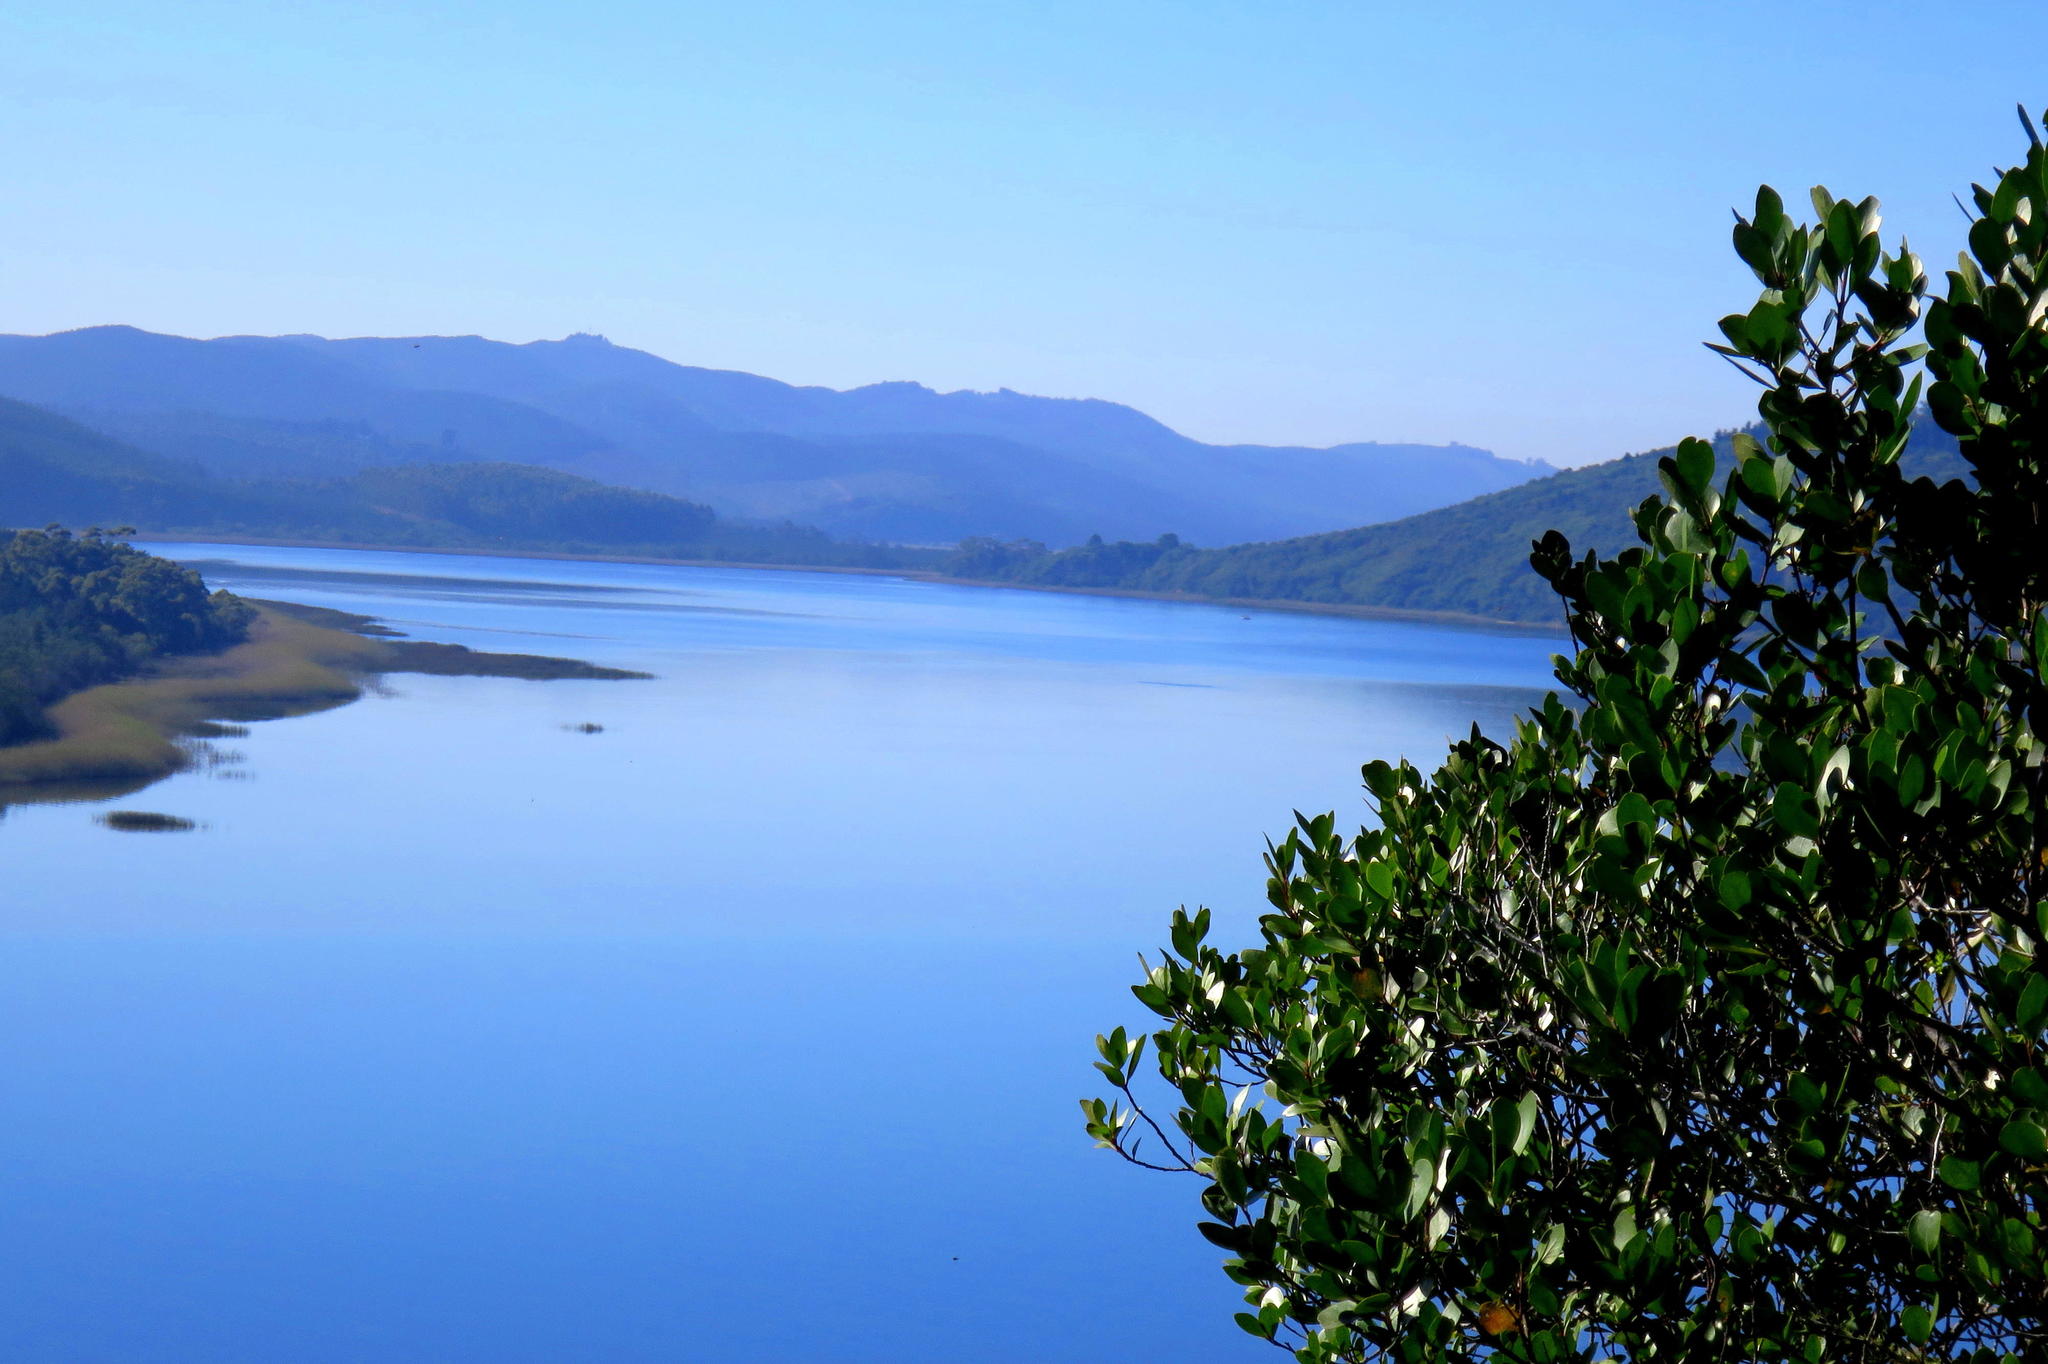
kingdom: Plantae
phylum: Tracheophyta
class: Magnoliopsida
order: Celastrales
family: Celastraceae
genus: Pterocelastrus
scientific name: Pterocelastrus tricuspidatus
